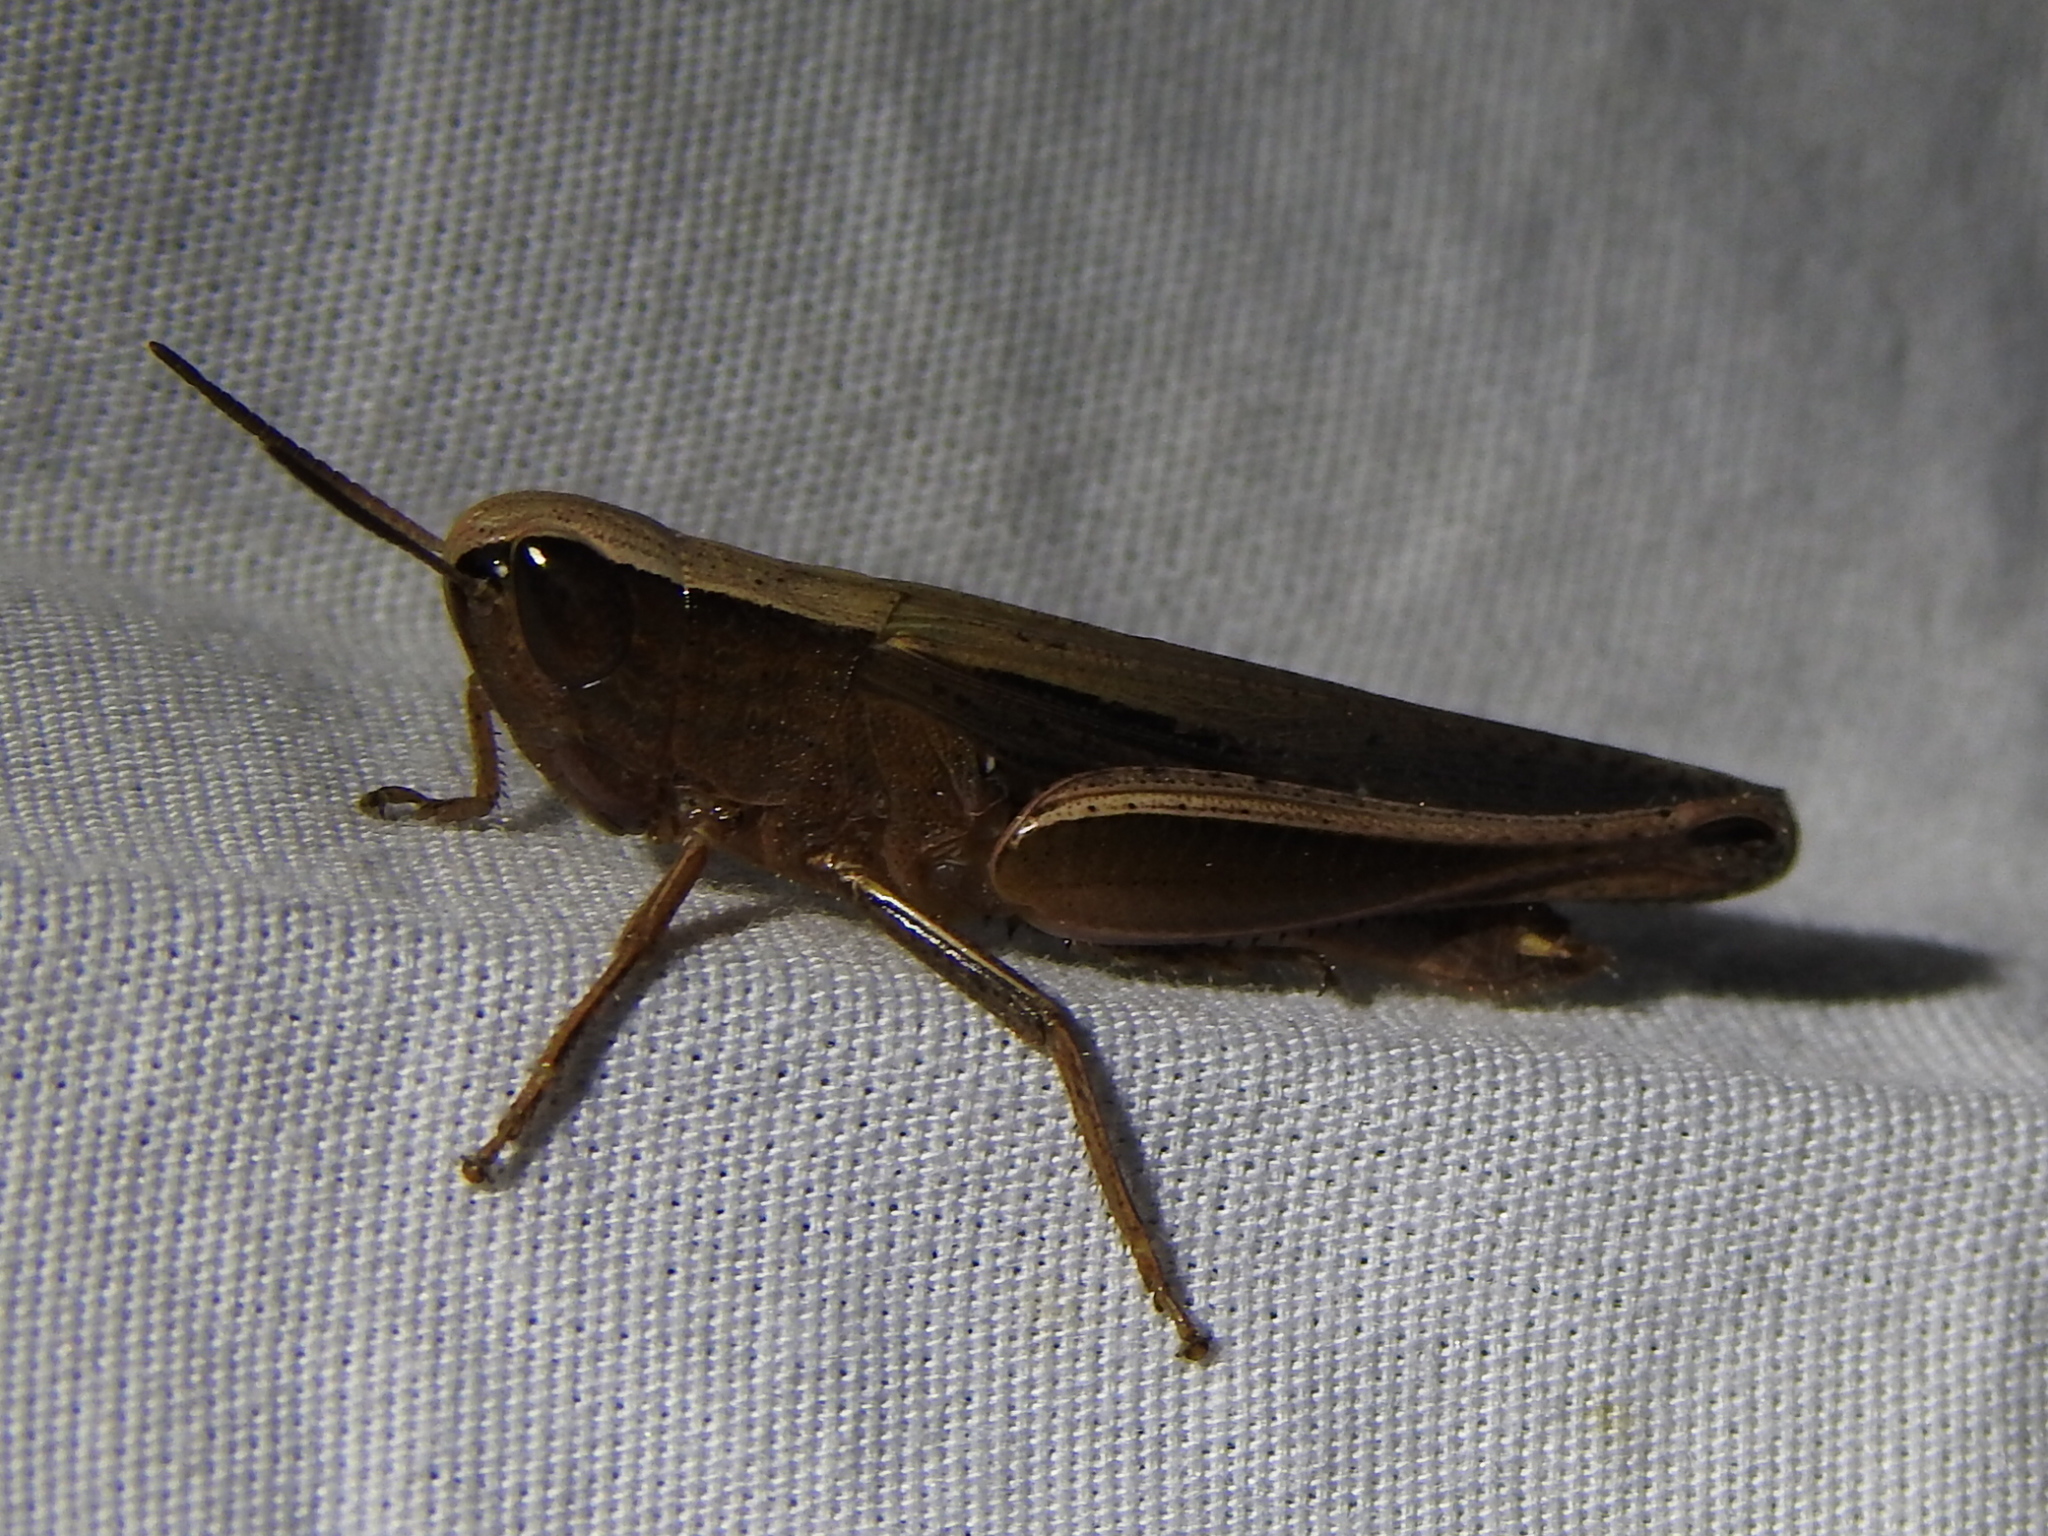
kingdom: Animalia
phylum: Arthropoda
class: Insecta
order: Orthoptera
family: Acrididae
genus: Amblytropidia
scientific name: Amblytropidia mysteca
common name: Brown winter grasshopper
